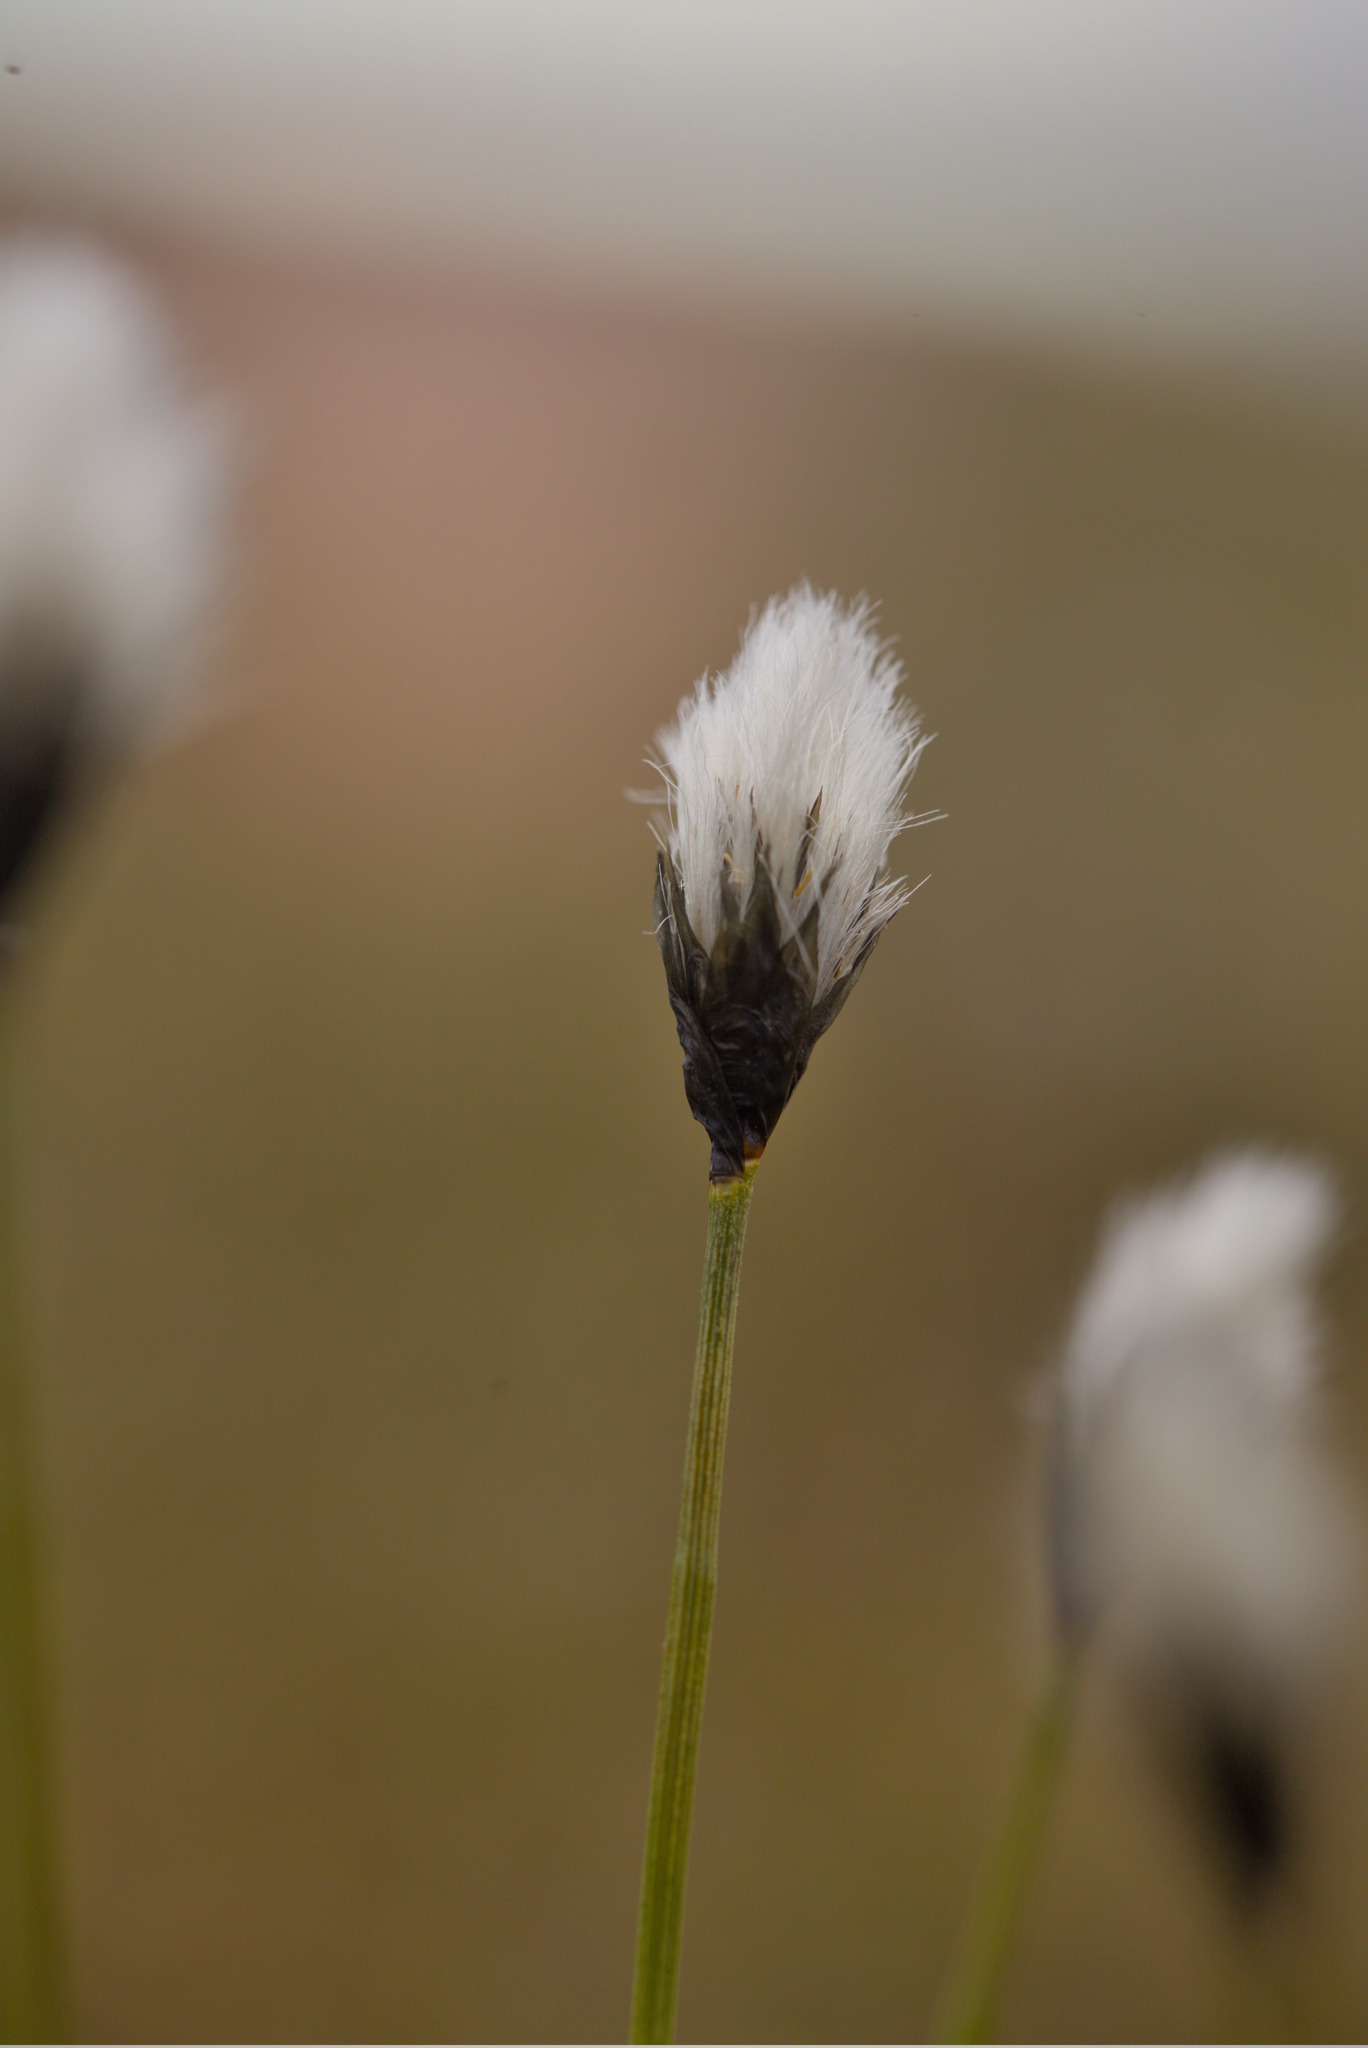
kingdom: Plantae
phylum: Tracheophyta
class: Liliopsida
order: Poales
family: Cyperaceae
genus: Eriophorum
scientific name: Eriophorum callitrix
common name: Arctic cottongrass
